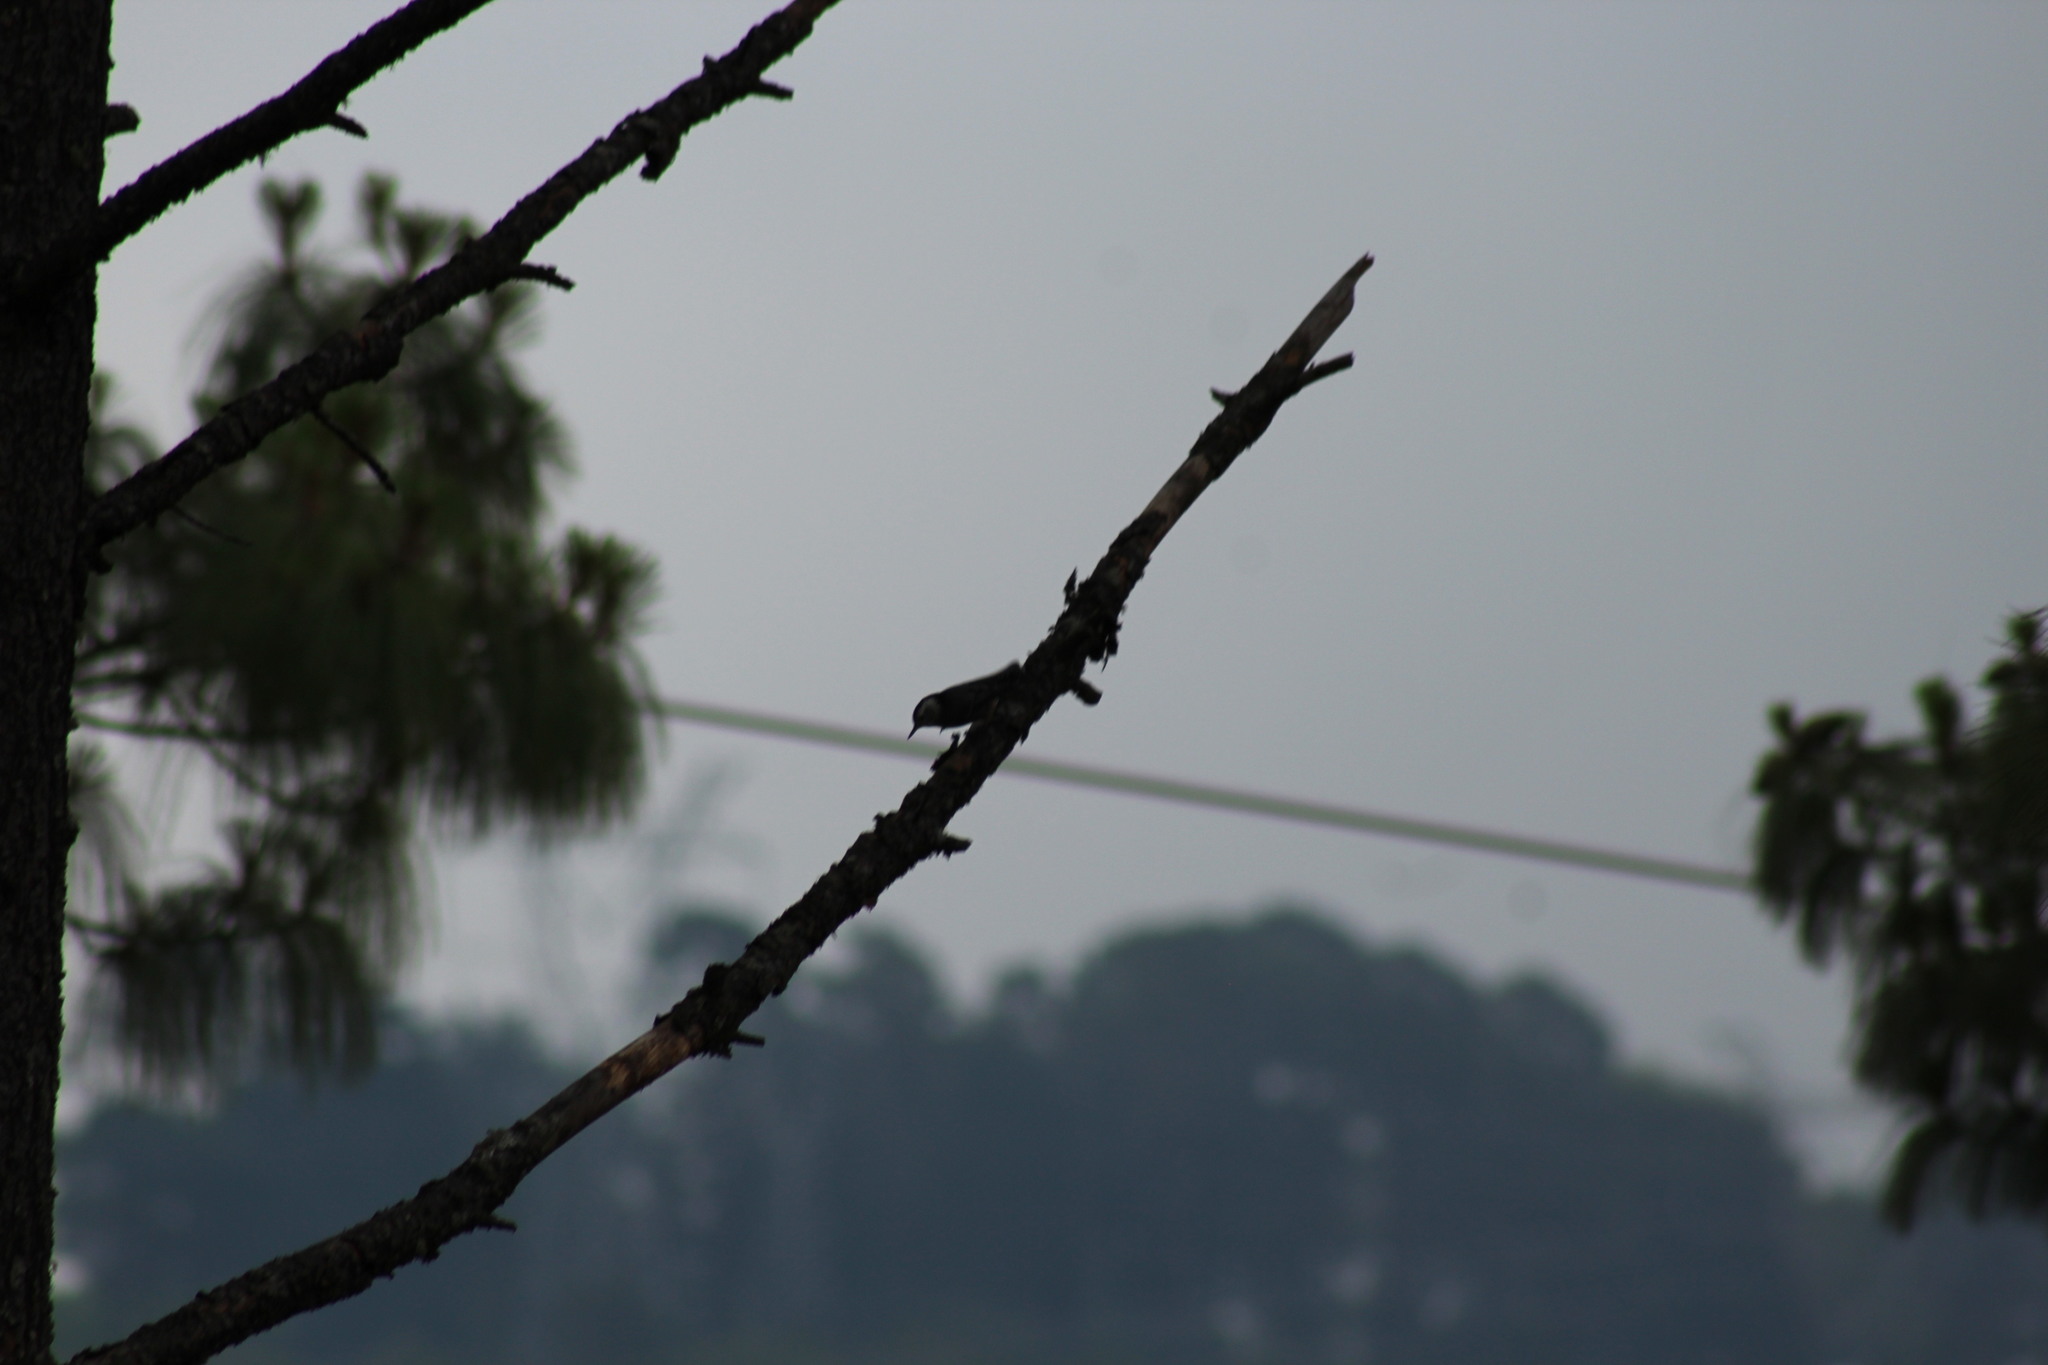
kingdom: Animalia
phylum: Chordata
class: Aves
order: Passeriformes
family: Sittidae
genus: Sitta
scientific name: Sitta carolinensis
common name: White-breasted nuthatch
